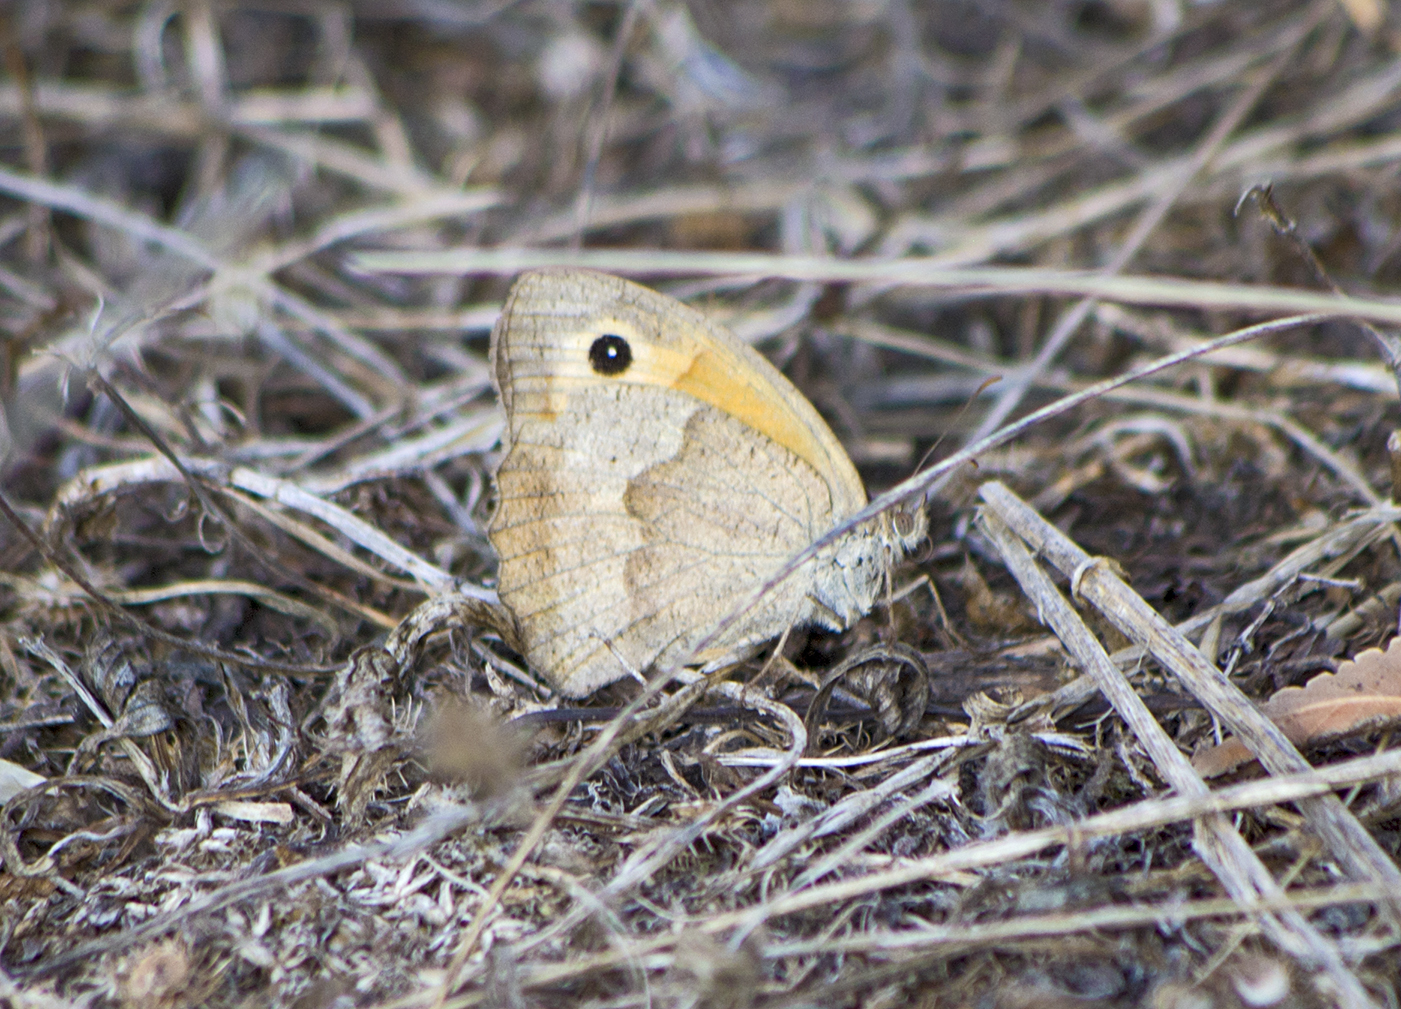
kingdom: Animalia
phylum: Arthropoda
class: Insecta
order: Lepidoptera
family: Nymphalidae
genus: Maniola
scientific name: Maniola jurtina
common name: Meadow brown
